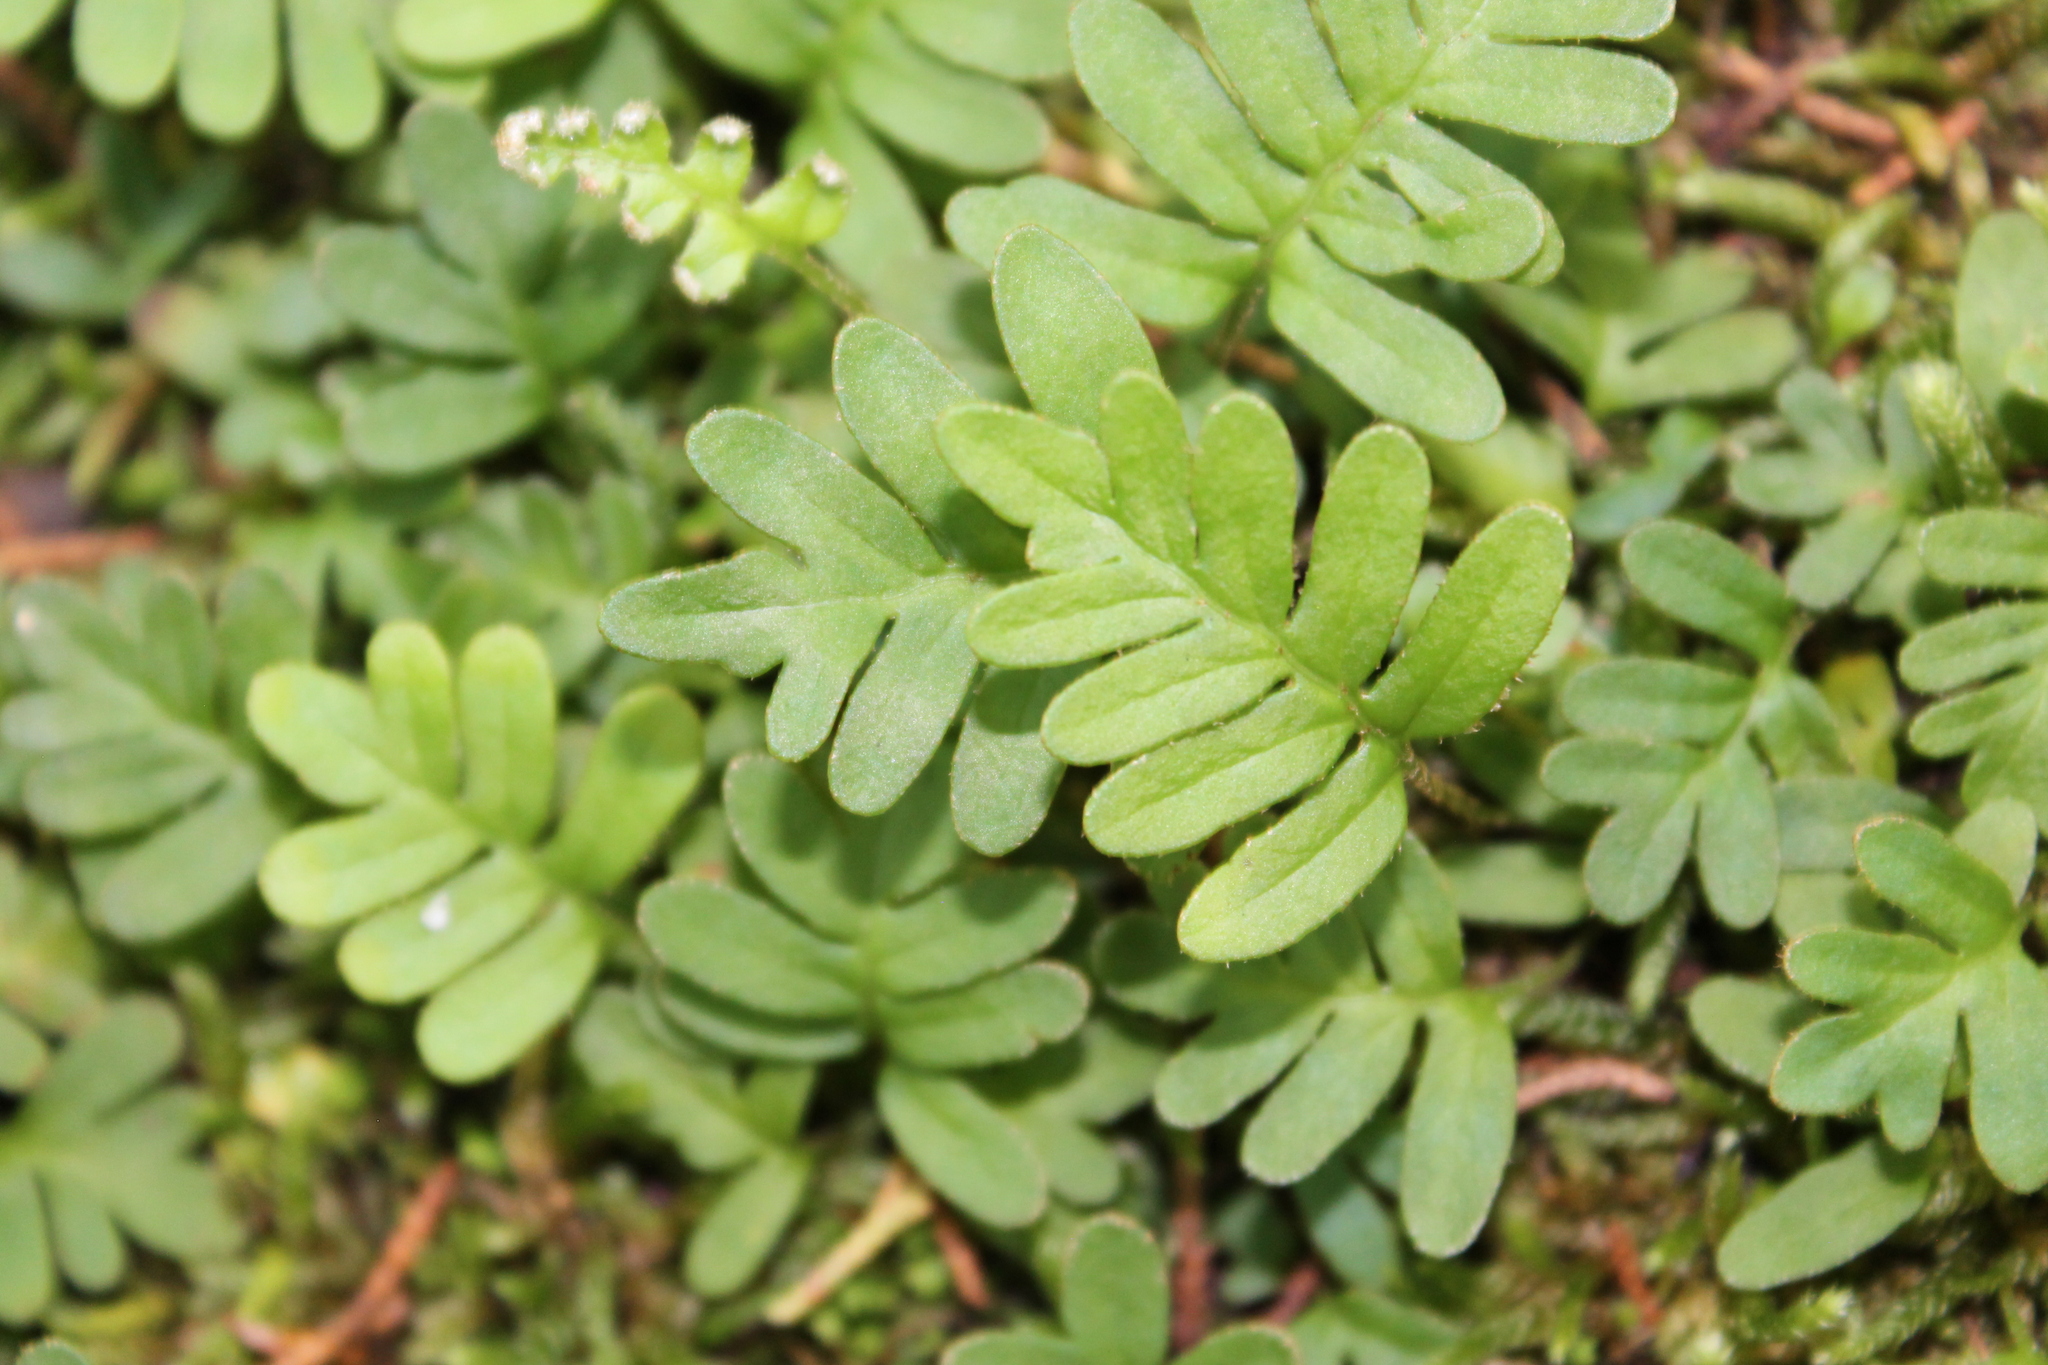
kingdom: Plantae
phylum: Tracheophyta
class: Polypodiopsida
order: Polypodiales
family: Polypodiaceae
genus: Pleopeltis
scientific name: Pleopeltis michauxiana
